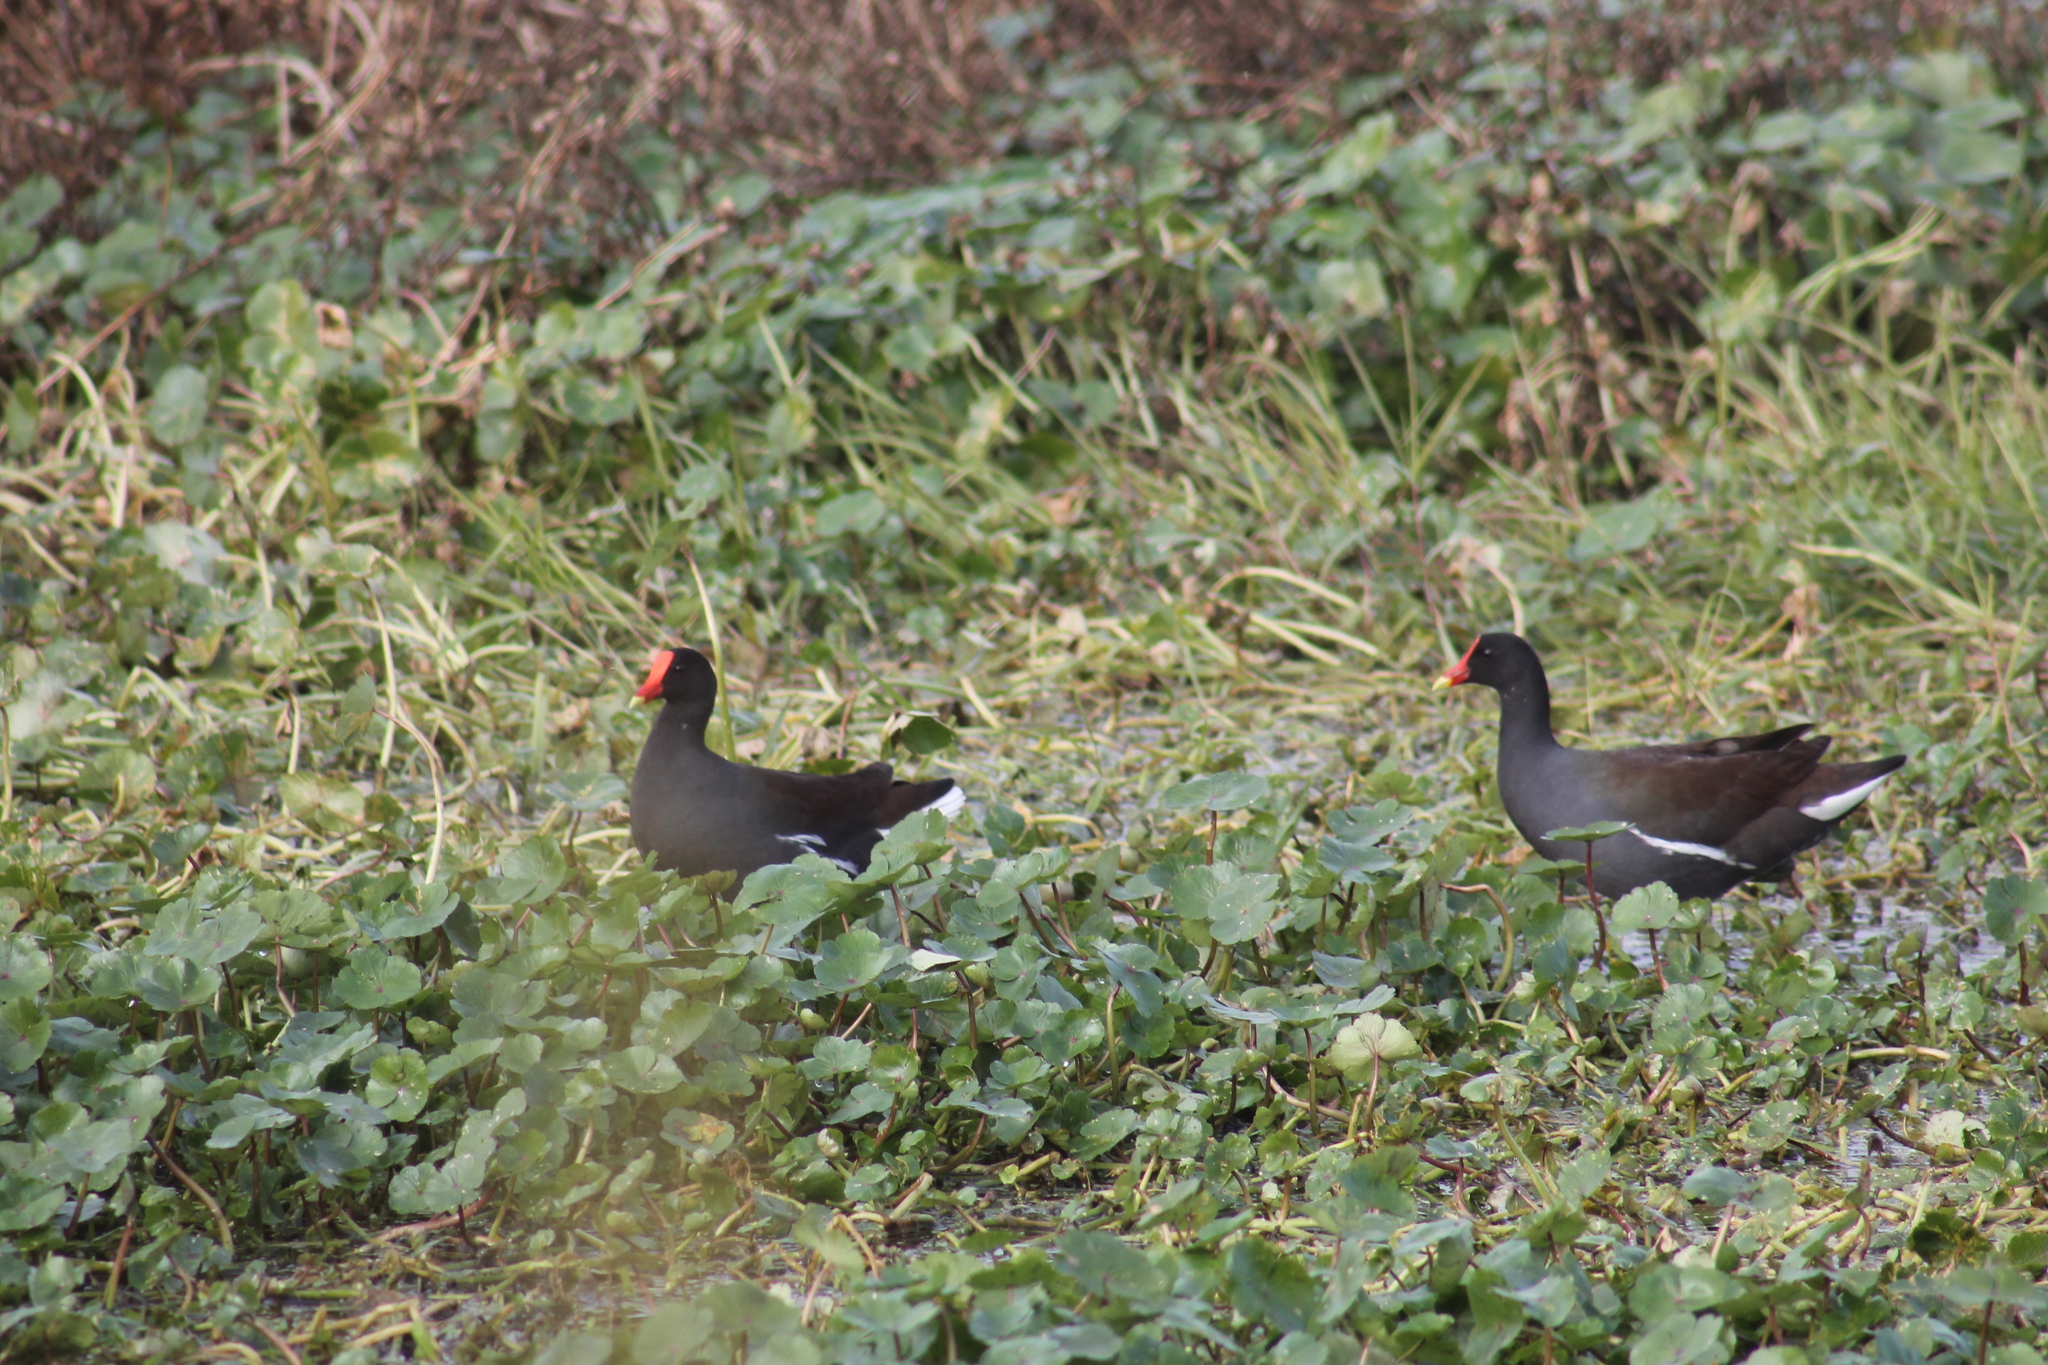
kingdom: Animalia
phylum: Chordata
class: Aves
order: Gruiformes
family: Rallidae
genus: Gallinula
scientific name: Gallinula chloropus
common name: Common moorhen
